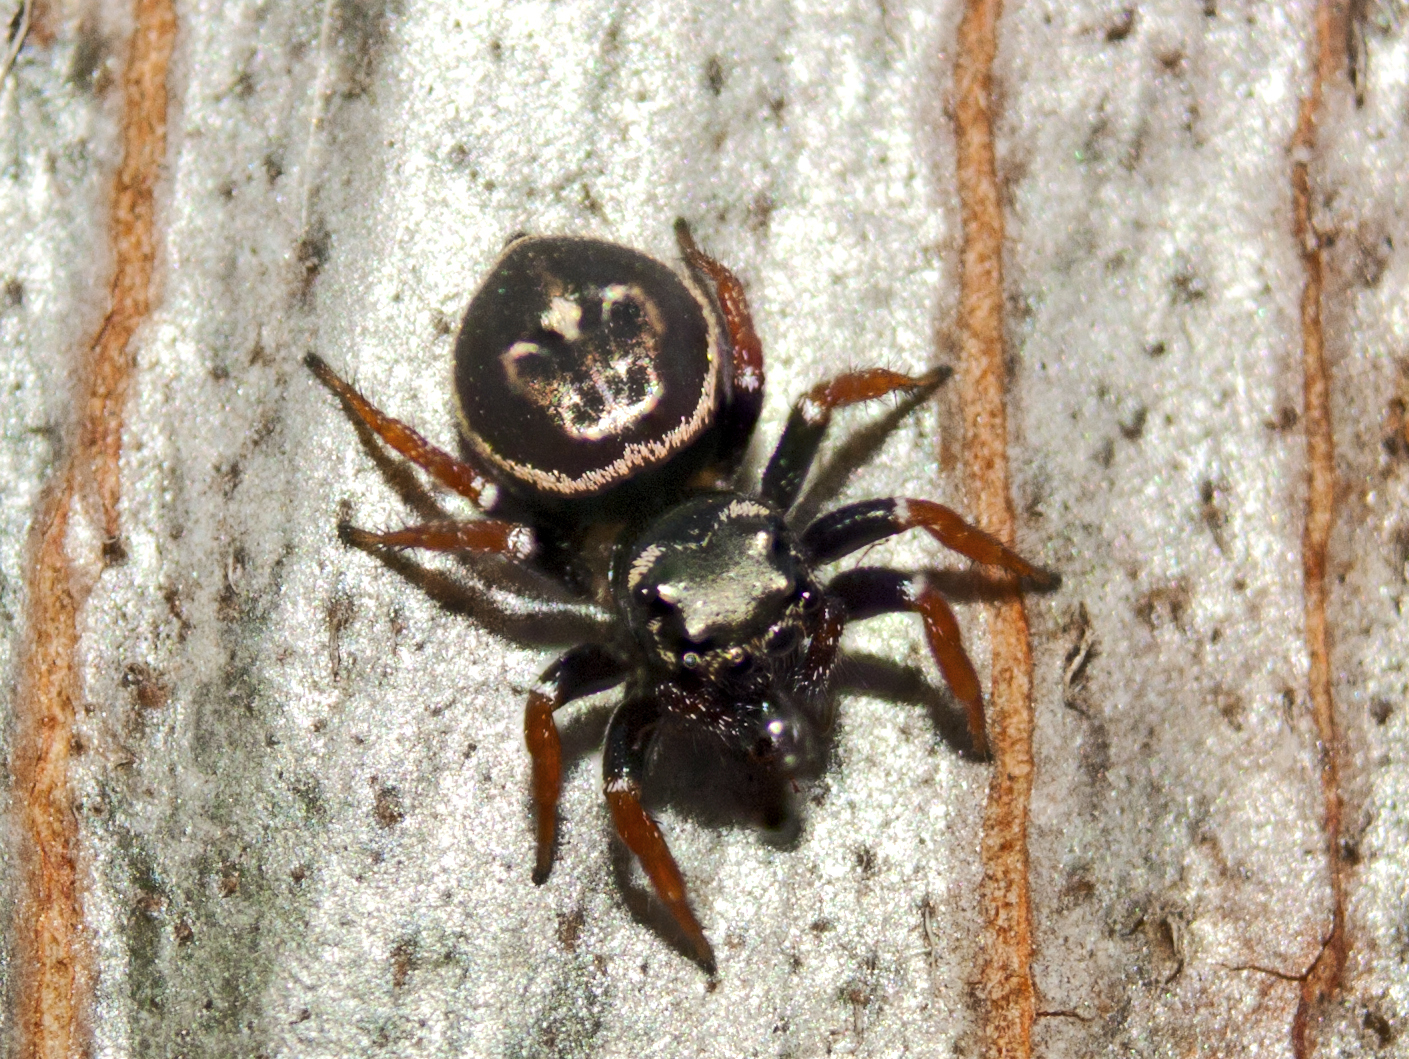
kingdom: Animalia
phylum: Arthropoda
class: Arachnida
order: Araneae
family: Salticidae
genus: Zenodorus
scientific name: Zenodorus orbiculatus
